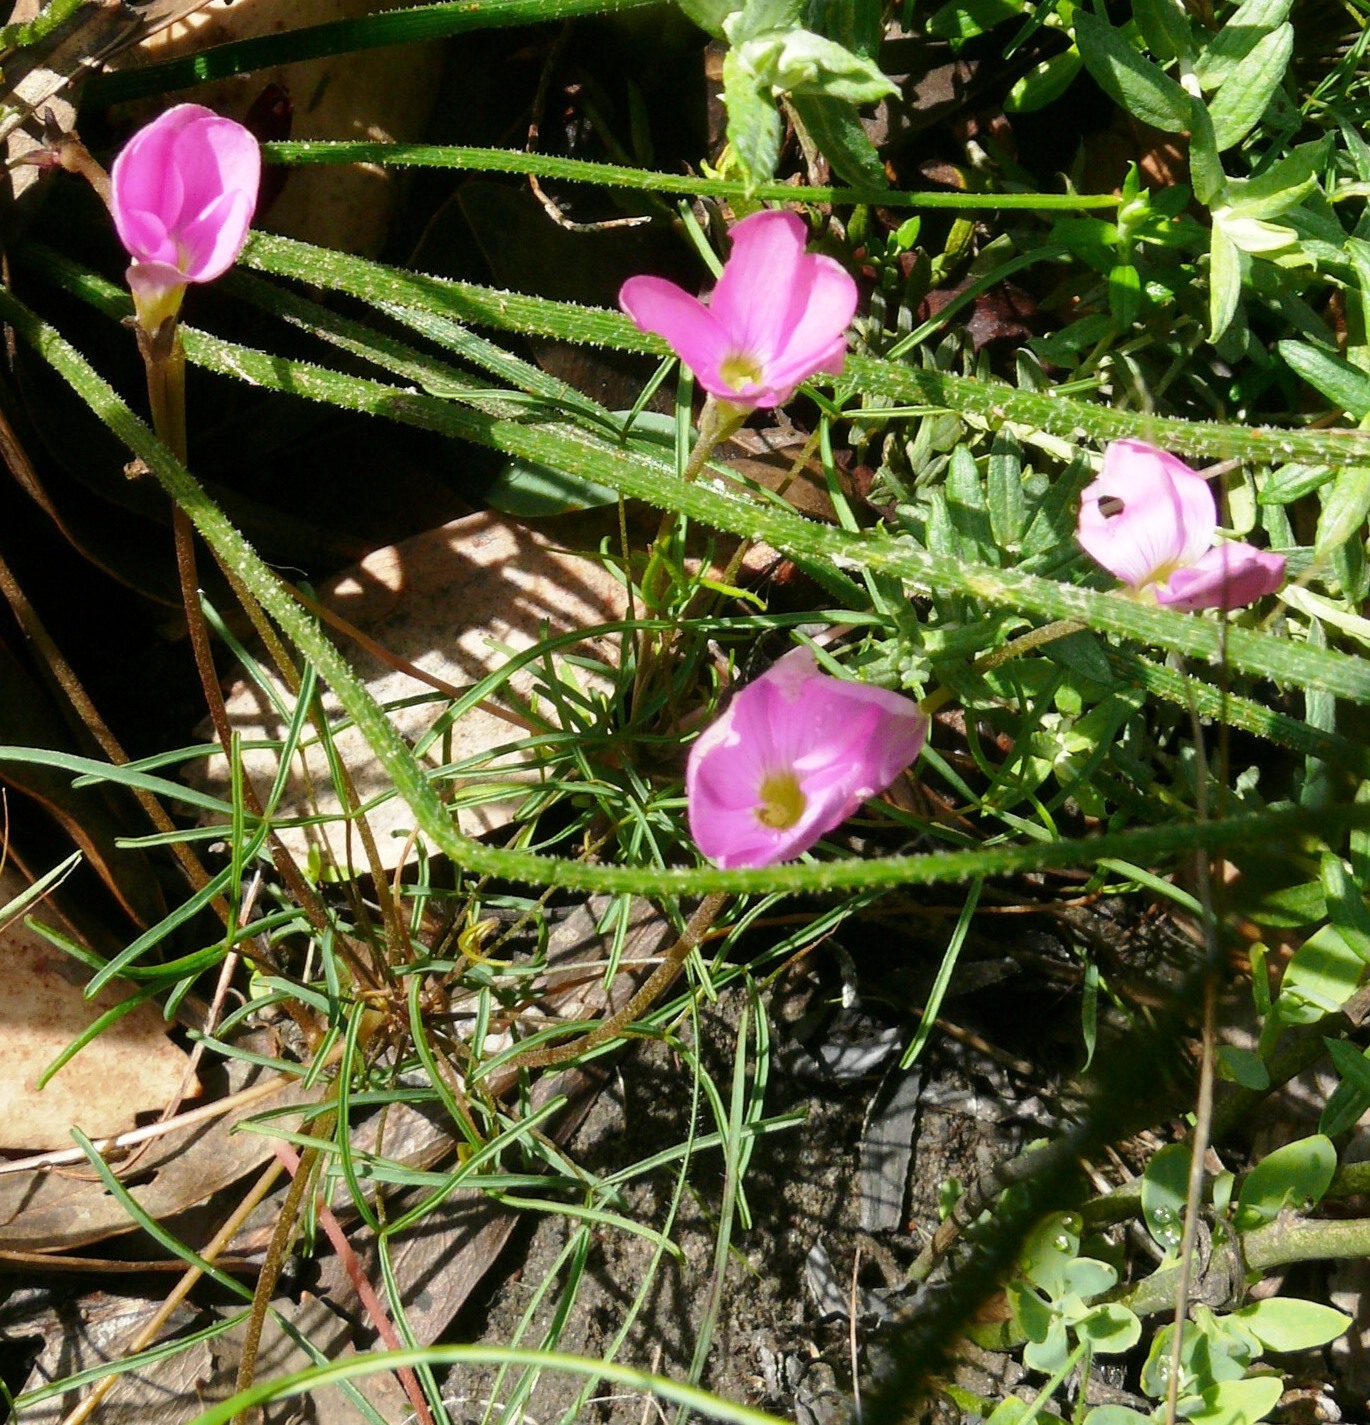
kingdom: Plantae
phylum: Tracheophyta
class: Magnoliopsida
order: Oxalidales
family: Oxalidaceae
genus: Oxalis
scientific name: Oxalis polyphylla
